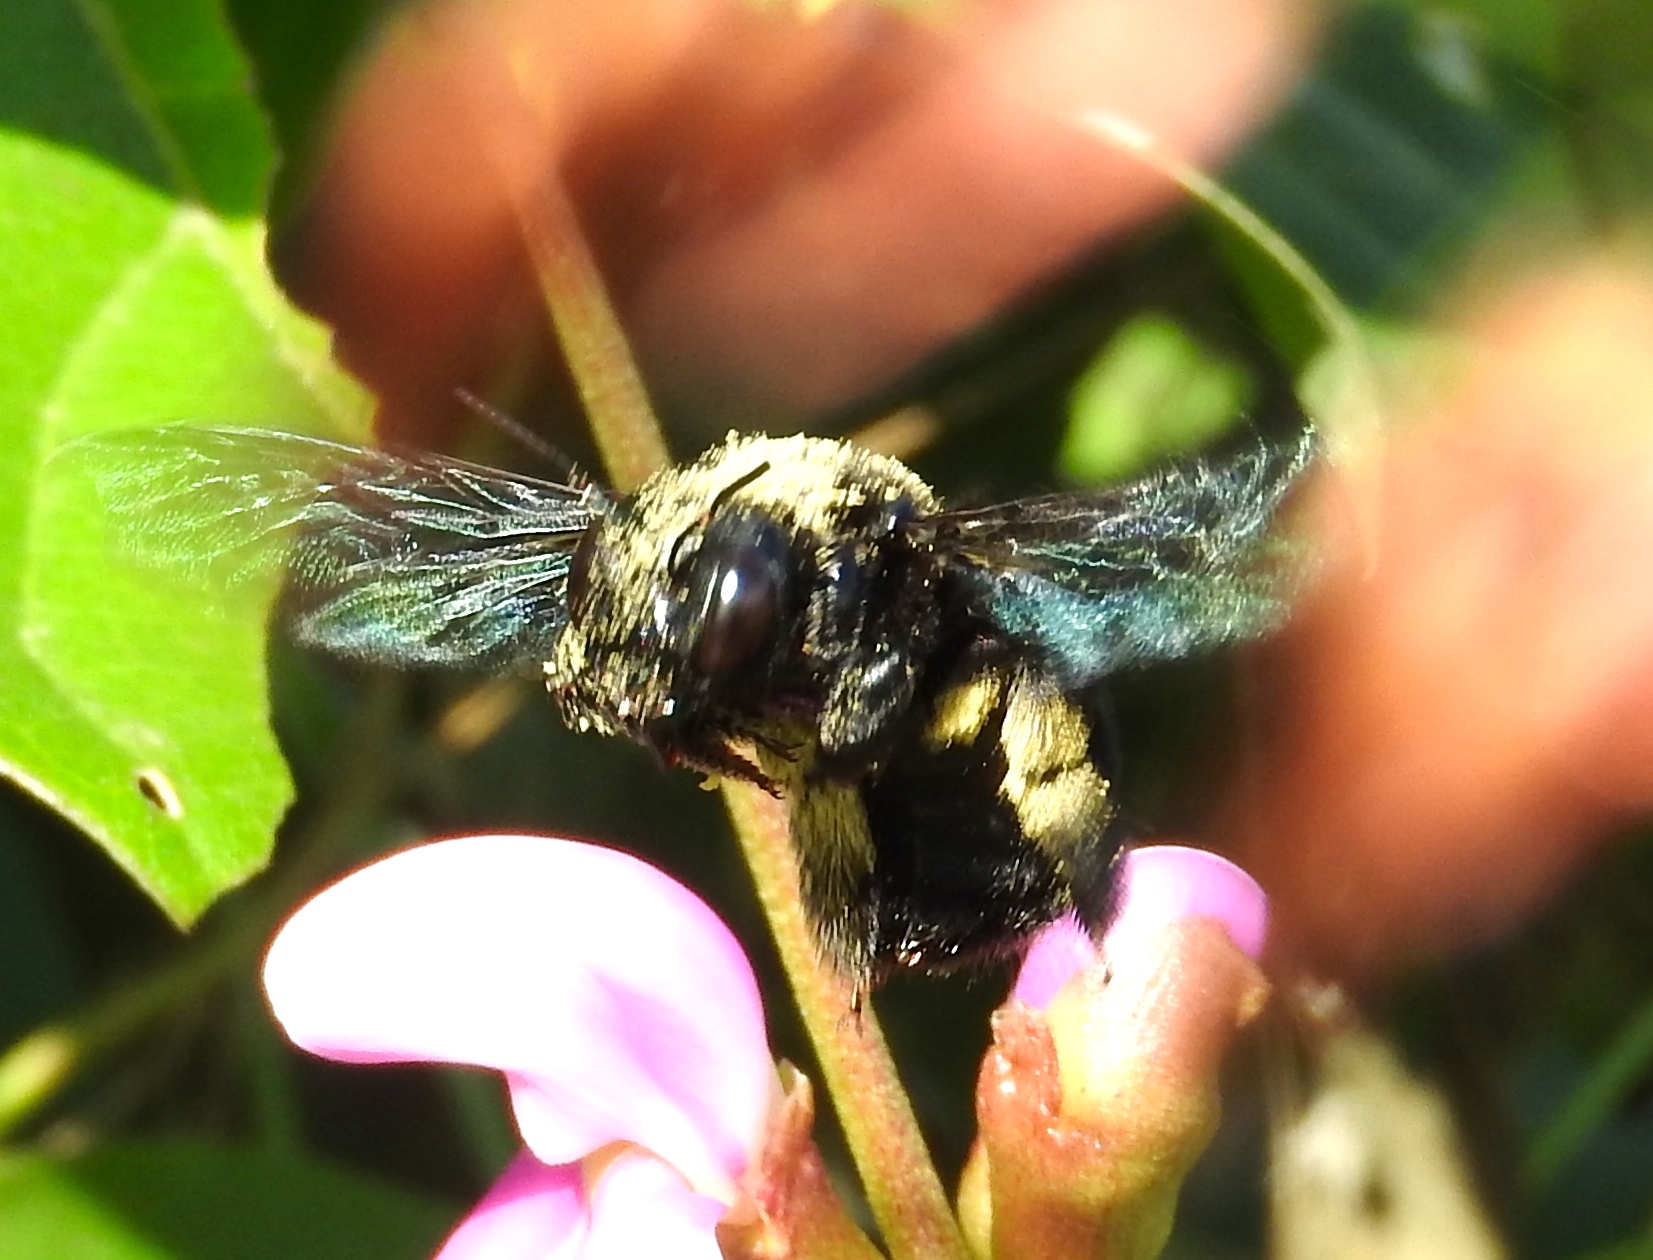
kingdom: Animalia
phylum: Arthropoda
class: Insecta
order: Hymenoptera
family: Apidae
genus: Xylocopa
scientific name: Xylocopa fimbriata
